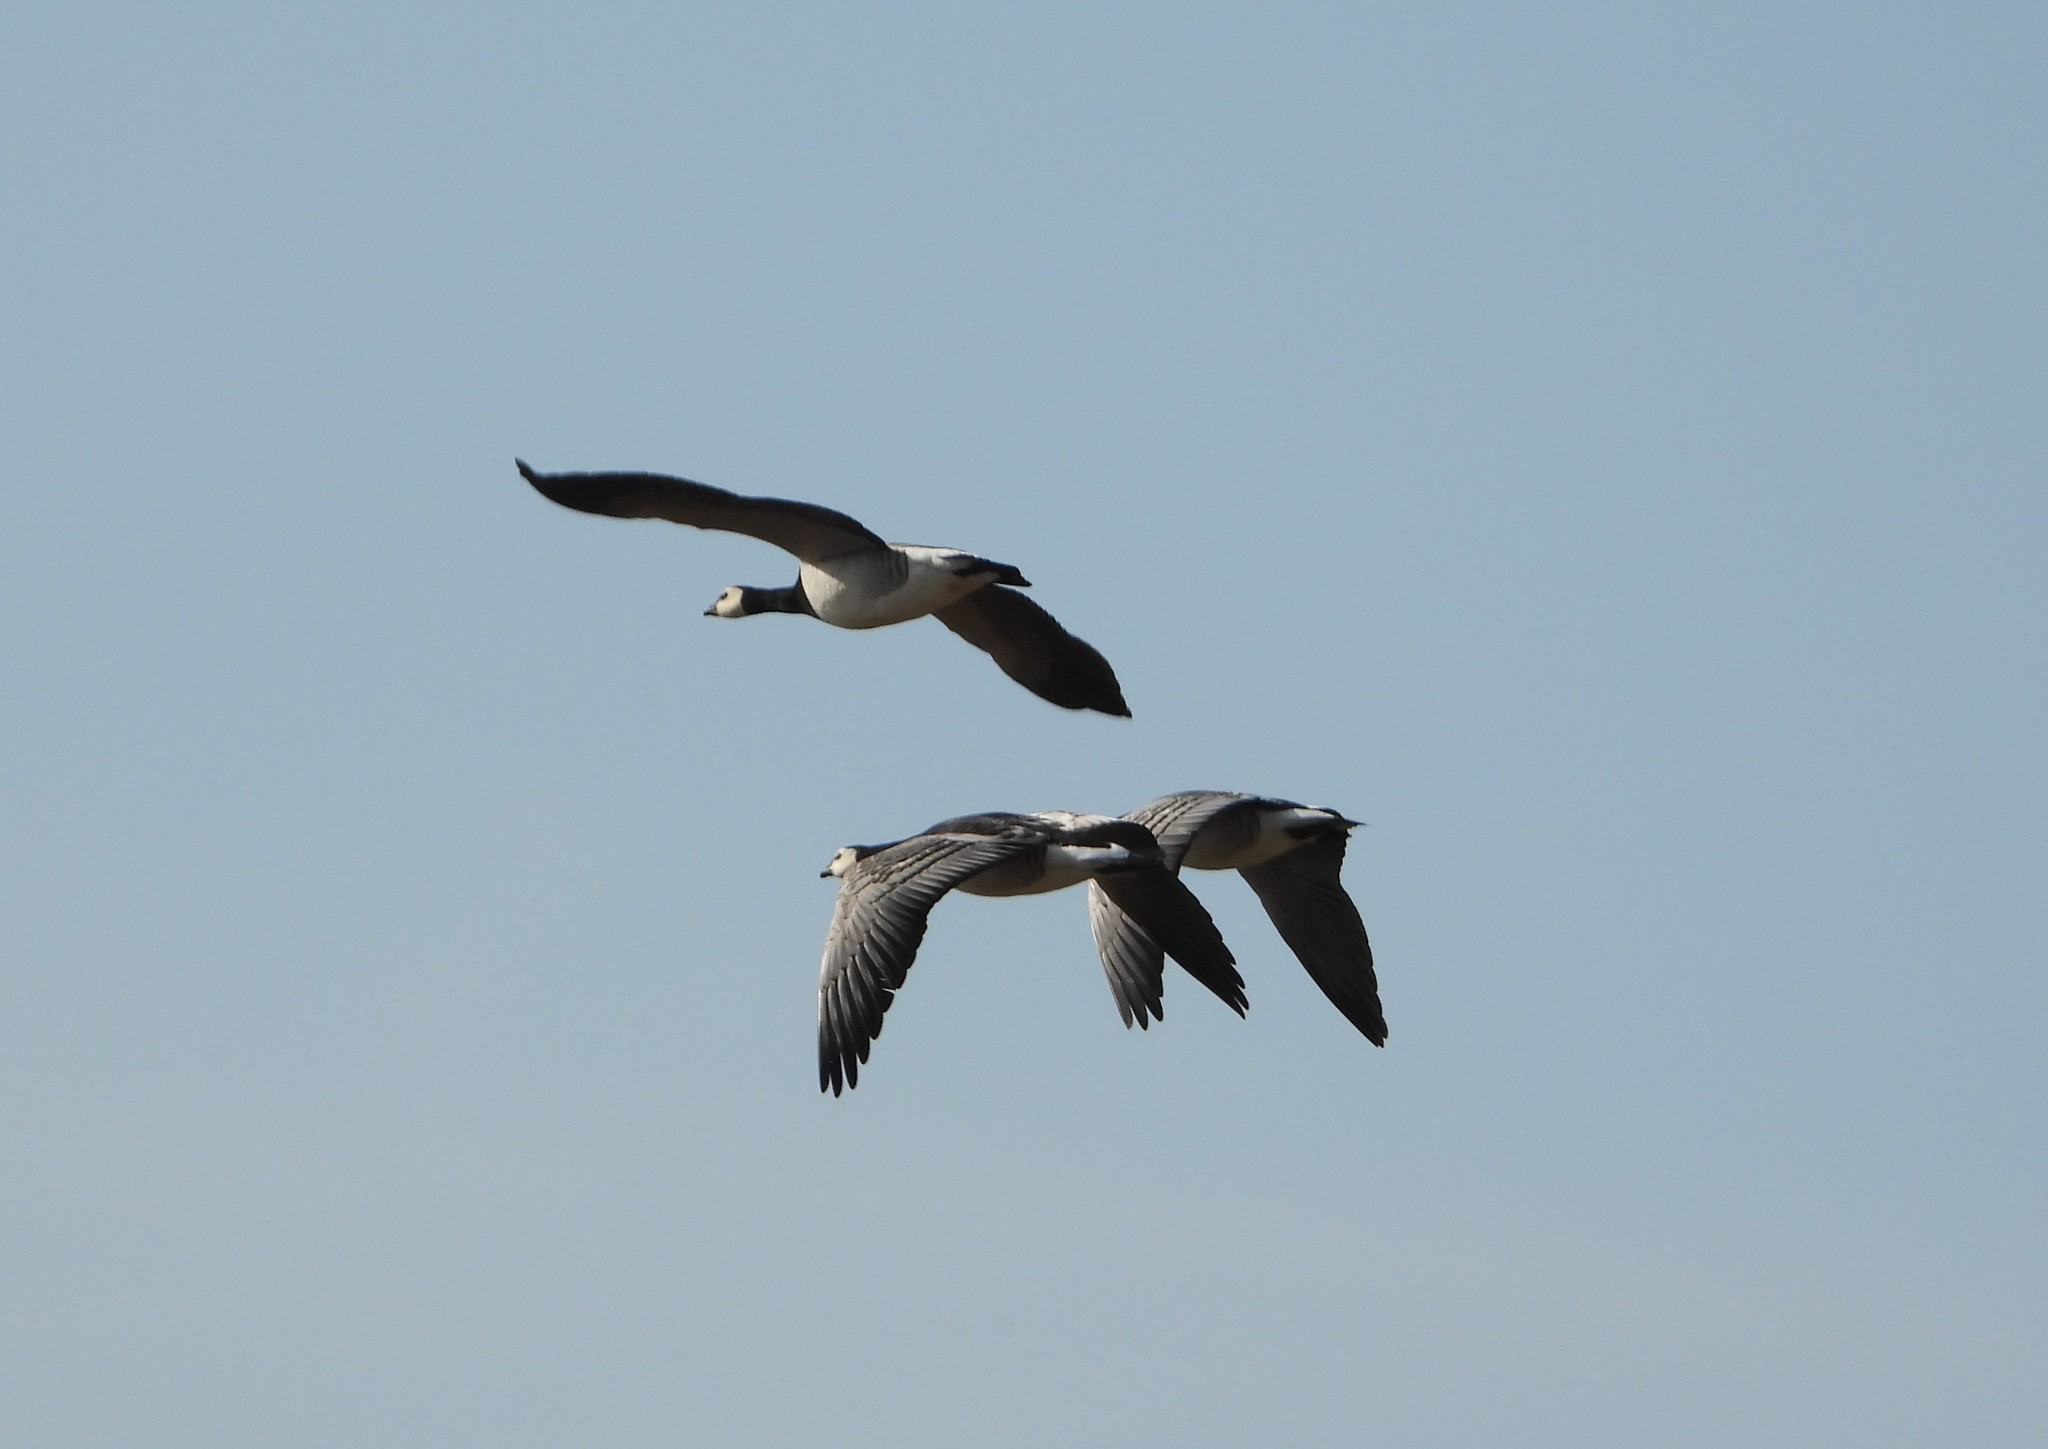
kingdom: Animalia
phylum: Chordata
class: Aves
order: Anseriformes
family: Anatidae
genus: Branta
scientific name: Branta leucopsis
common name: Barnacle goose
